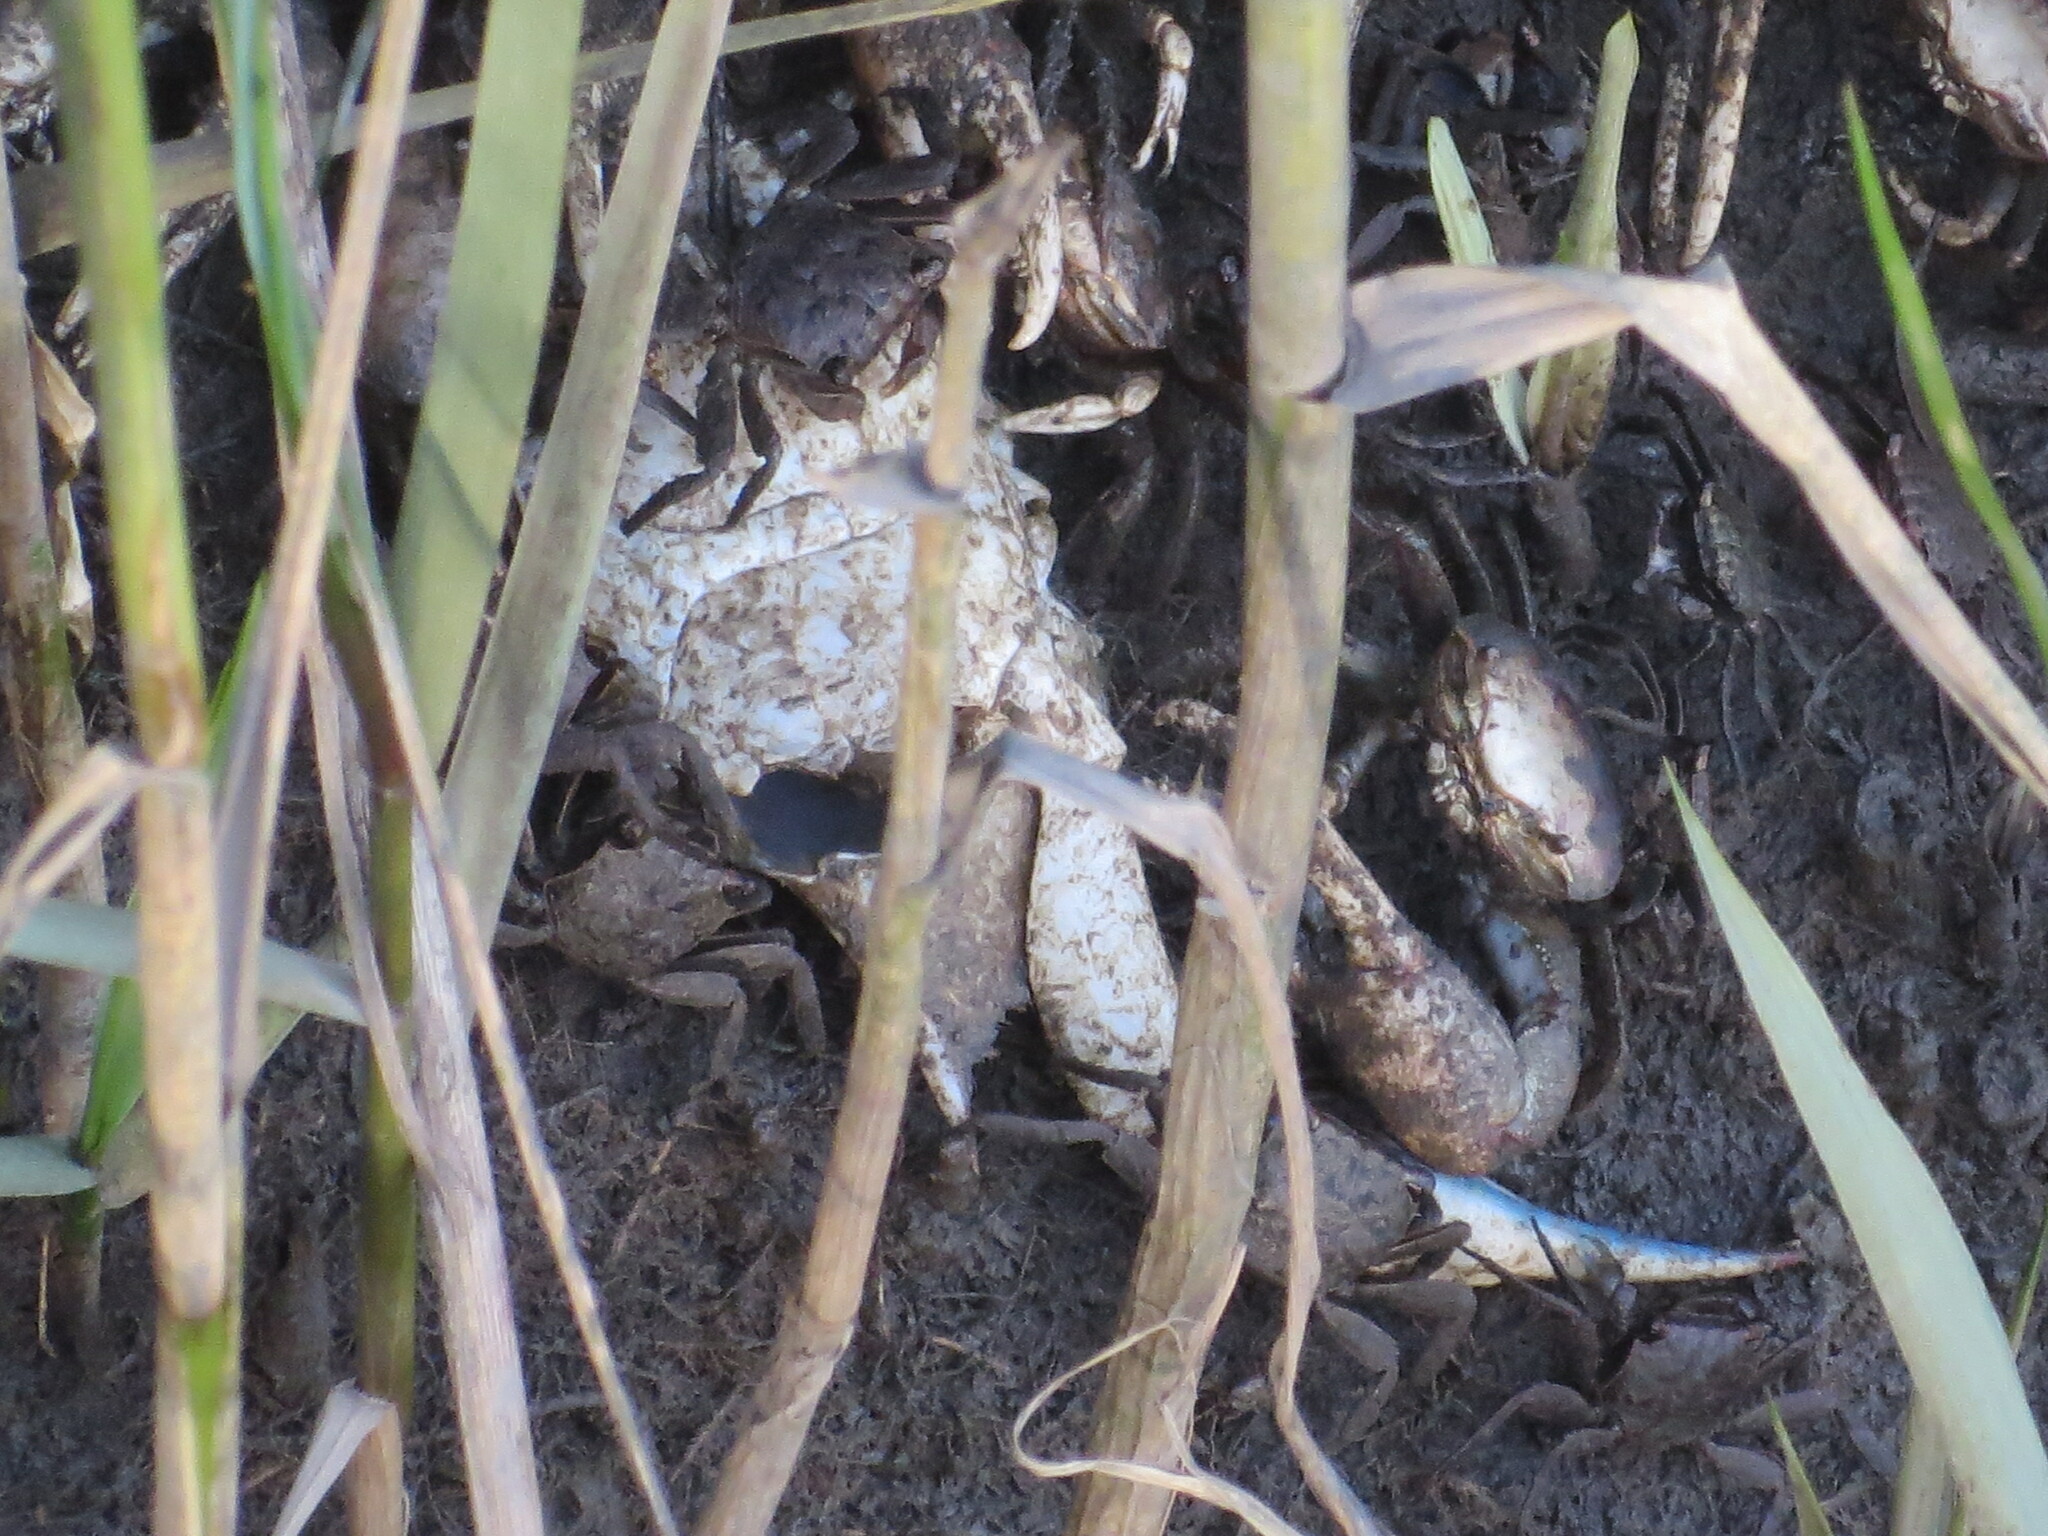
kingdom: Animalia
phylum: Arthropoda
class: Malacostraca
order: Decapoda
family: Ocypodidae
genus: Minuca
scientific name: Minuca minax
